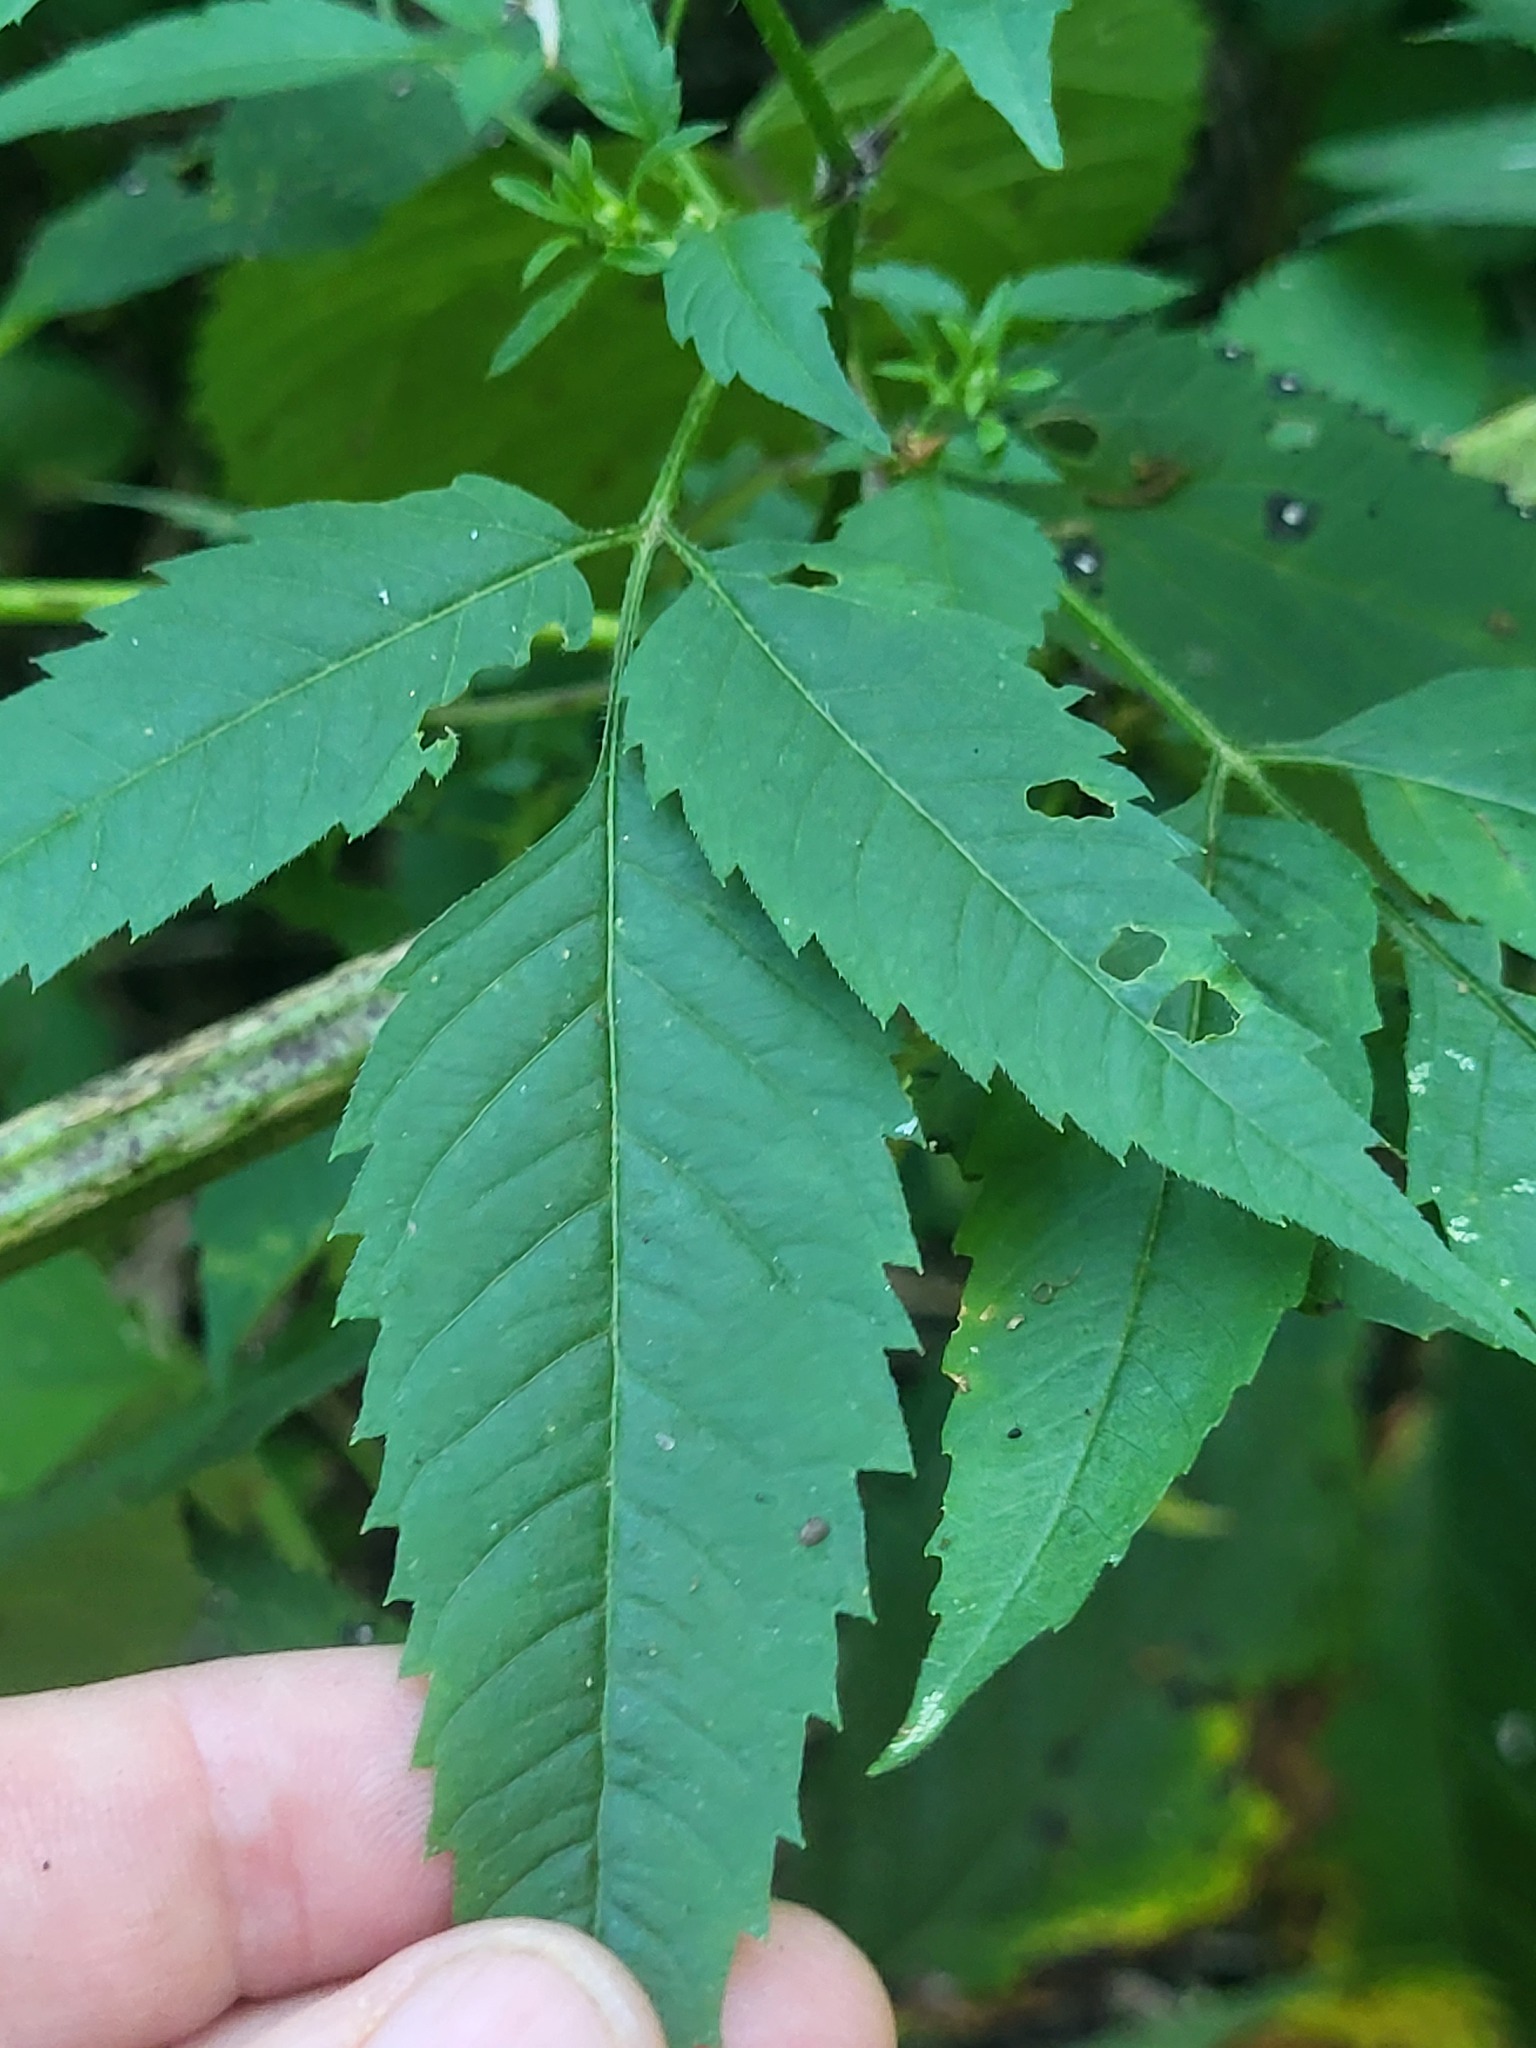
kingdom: Plantae
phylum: Tracheophyta
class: Magnoliopsida
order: Asterales
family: Asteraceae
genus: Bidens
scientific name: Bidens frondosa
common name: Beggarticks
